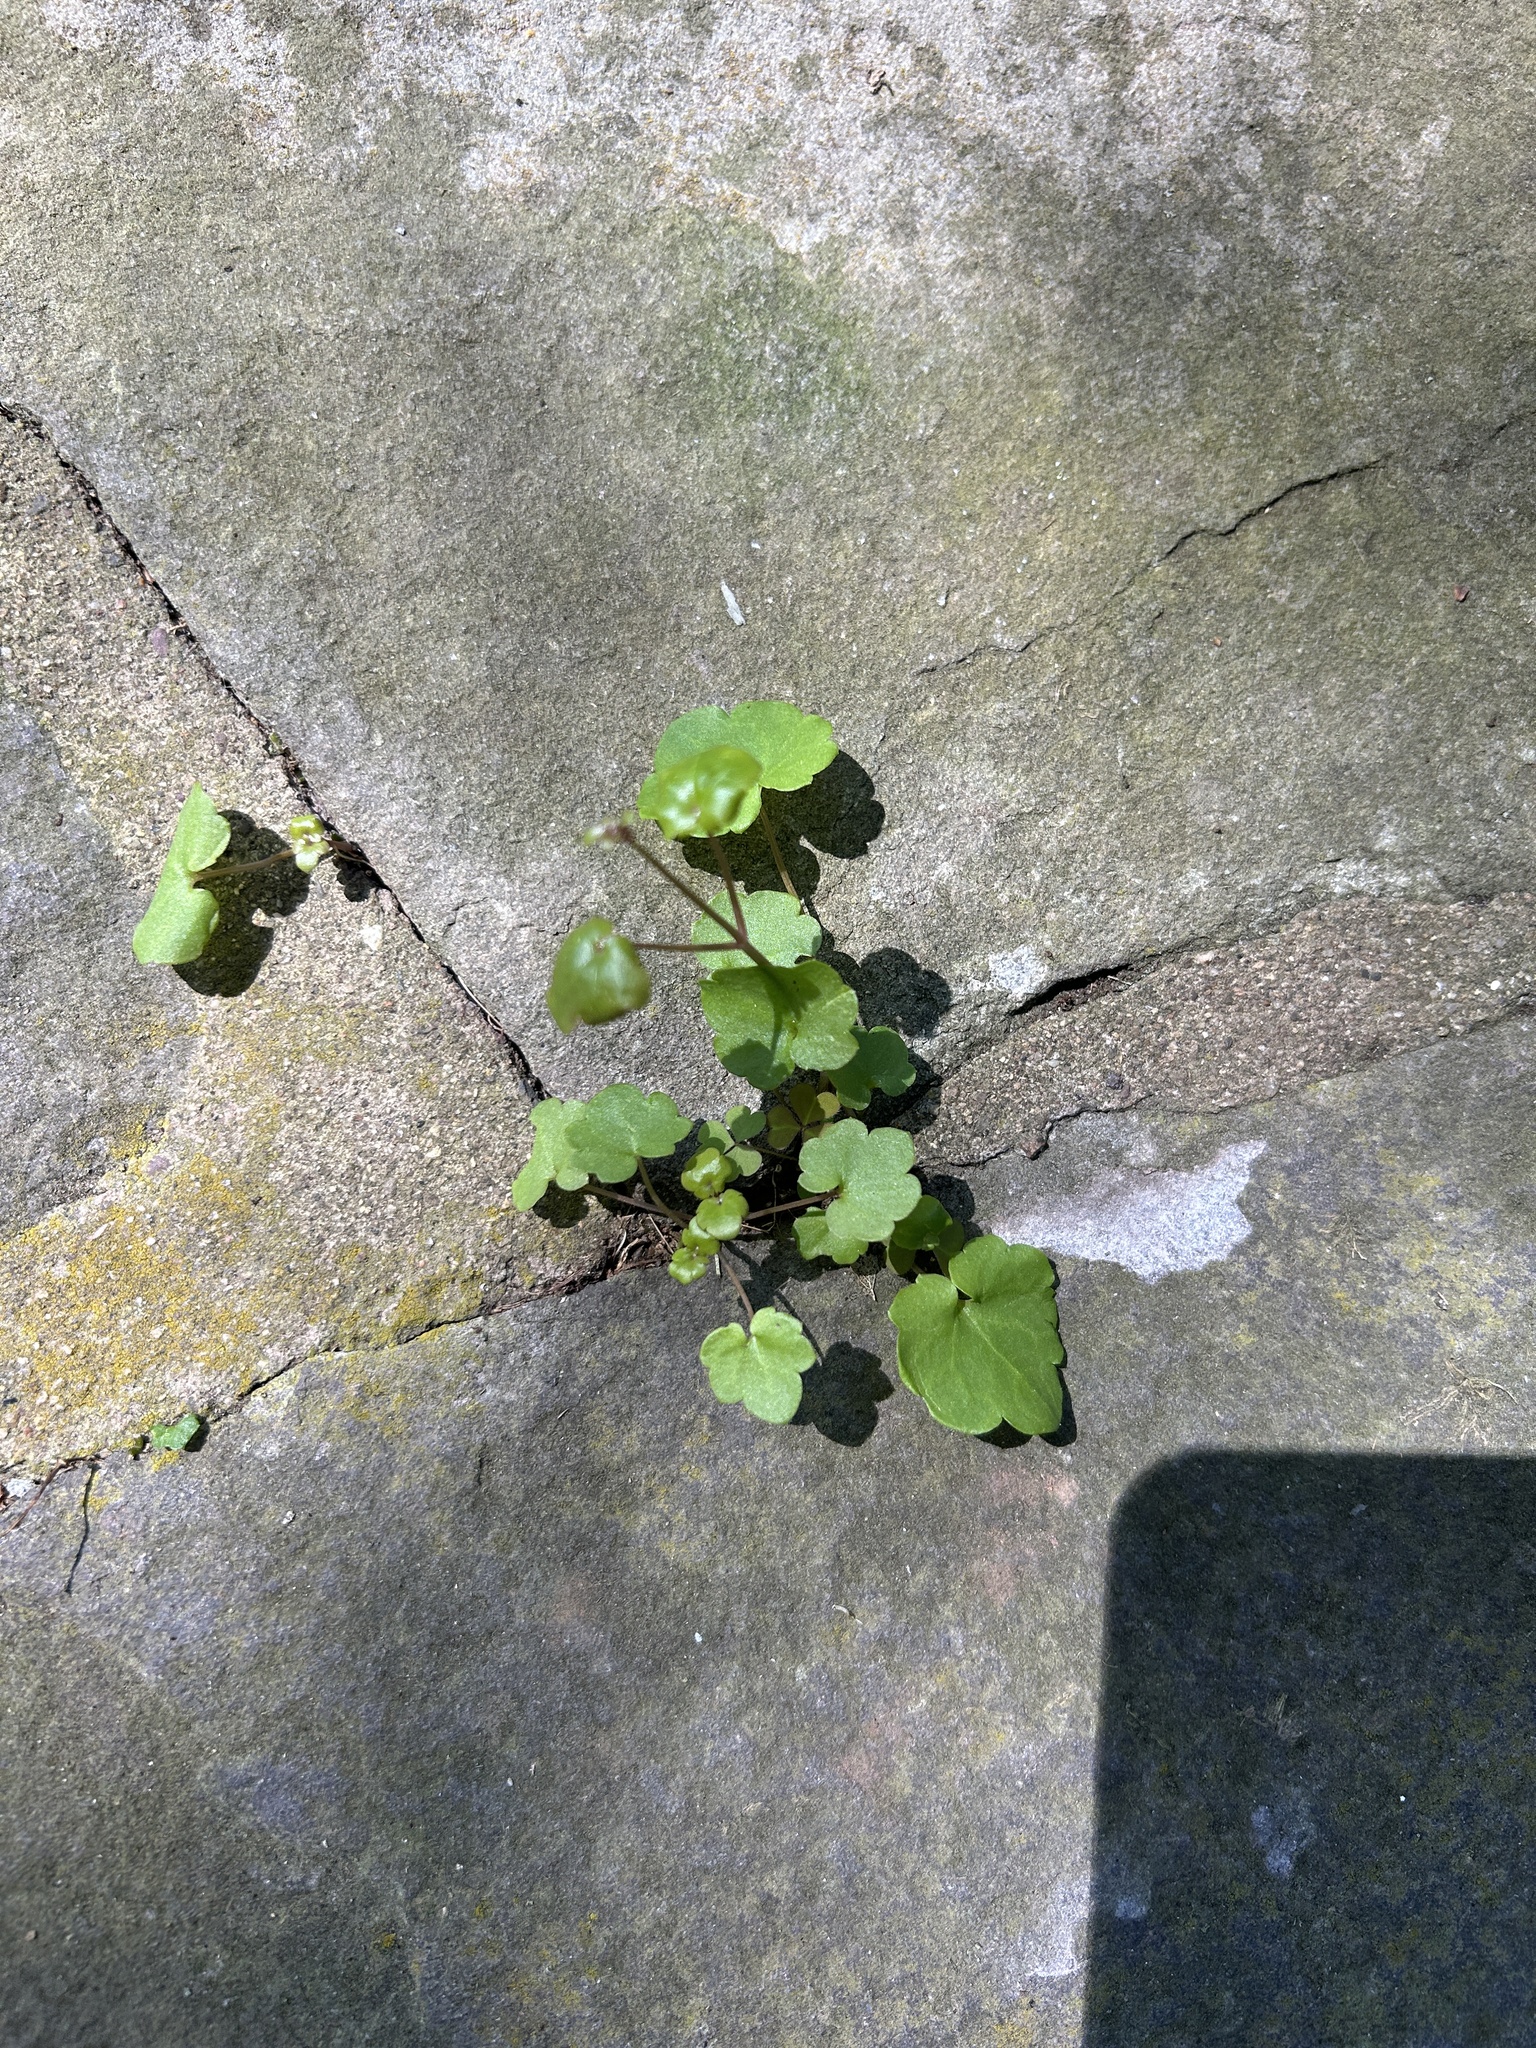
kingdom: Plantae
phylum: Tracheophyta
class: Magnoliopsida
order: Lamiales
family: Plantaginaceae
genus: Cymbalaria
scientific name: Cymbalaria muralis
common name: Ivy-leaved toadflax
